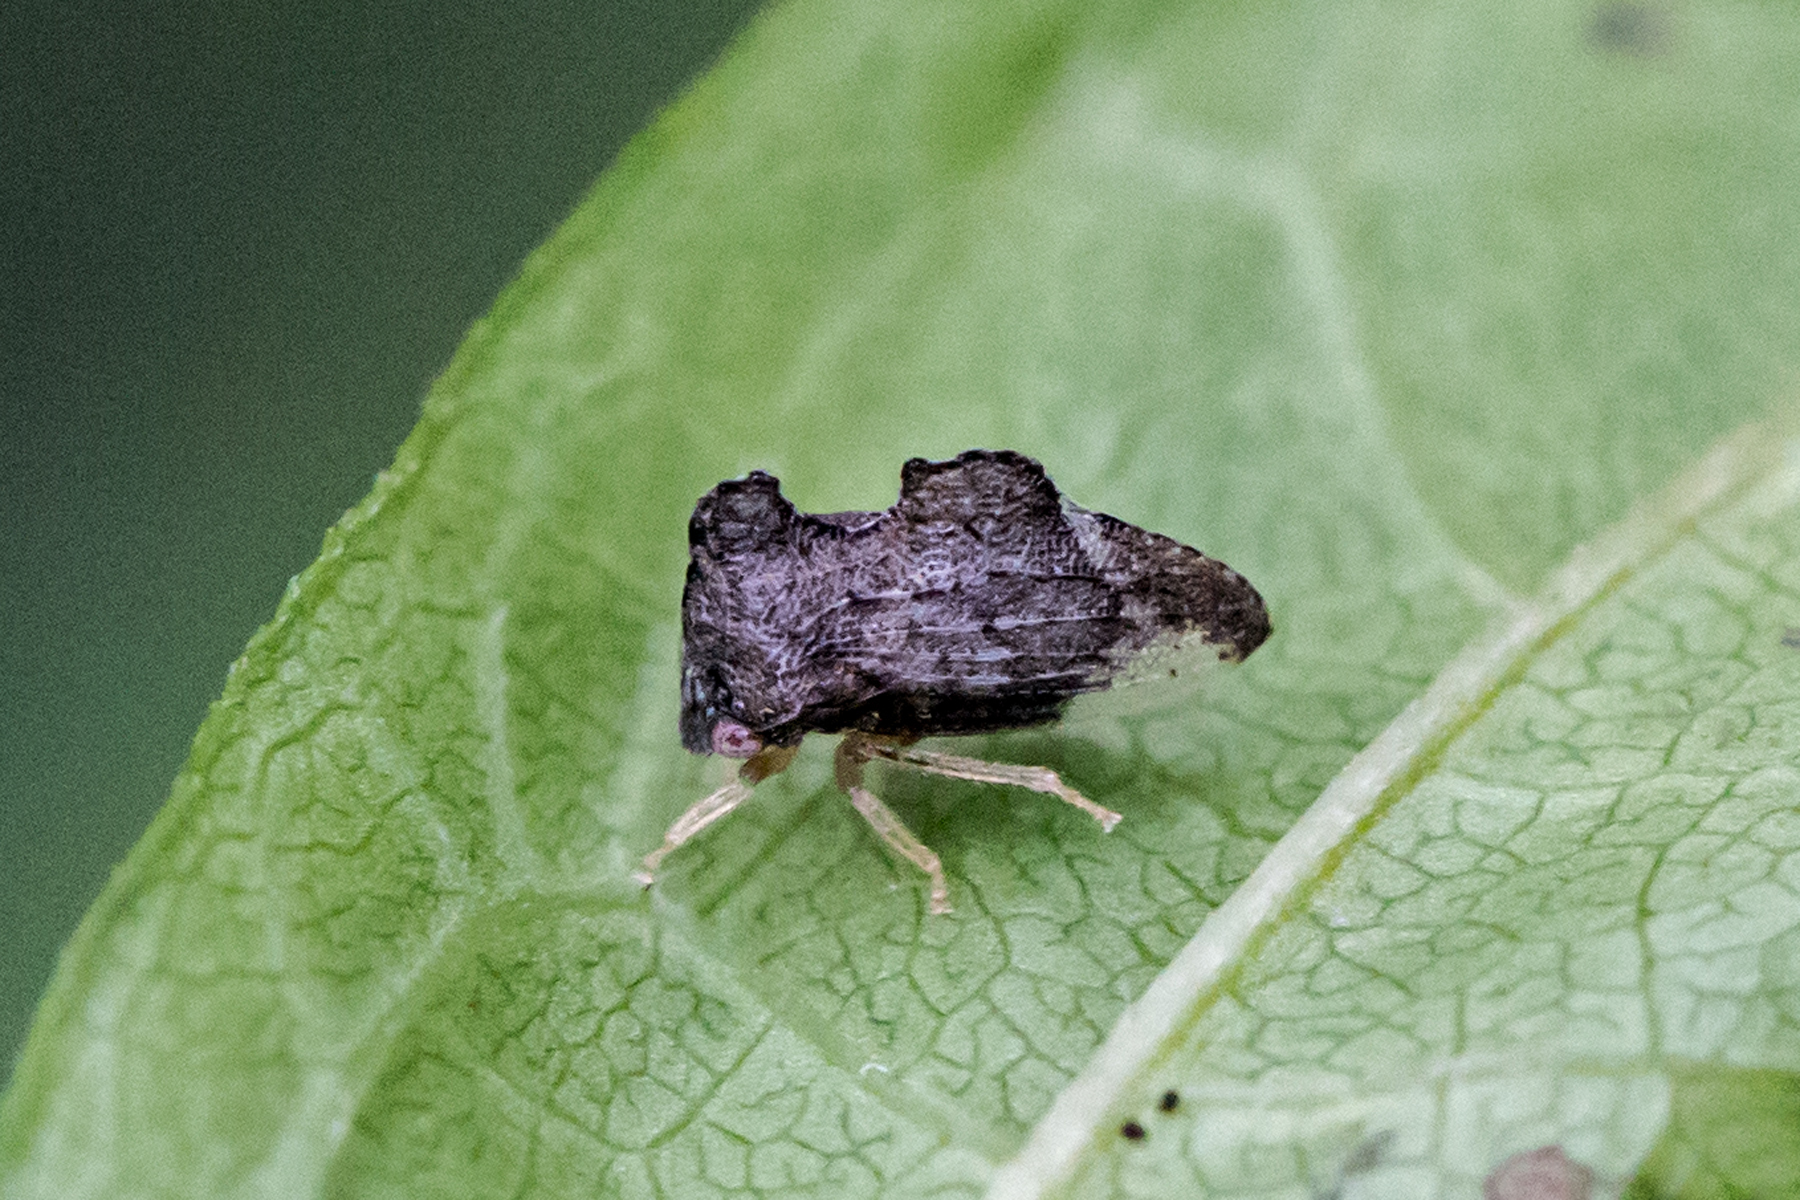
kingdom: Animalia
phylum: Arthropoda
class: Insecta
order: Hemiptera
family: Membracidae
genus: Entylia
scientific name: Entylia carinata
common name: Keeled treehopper
